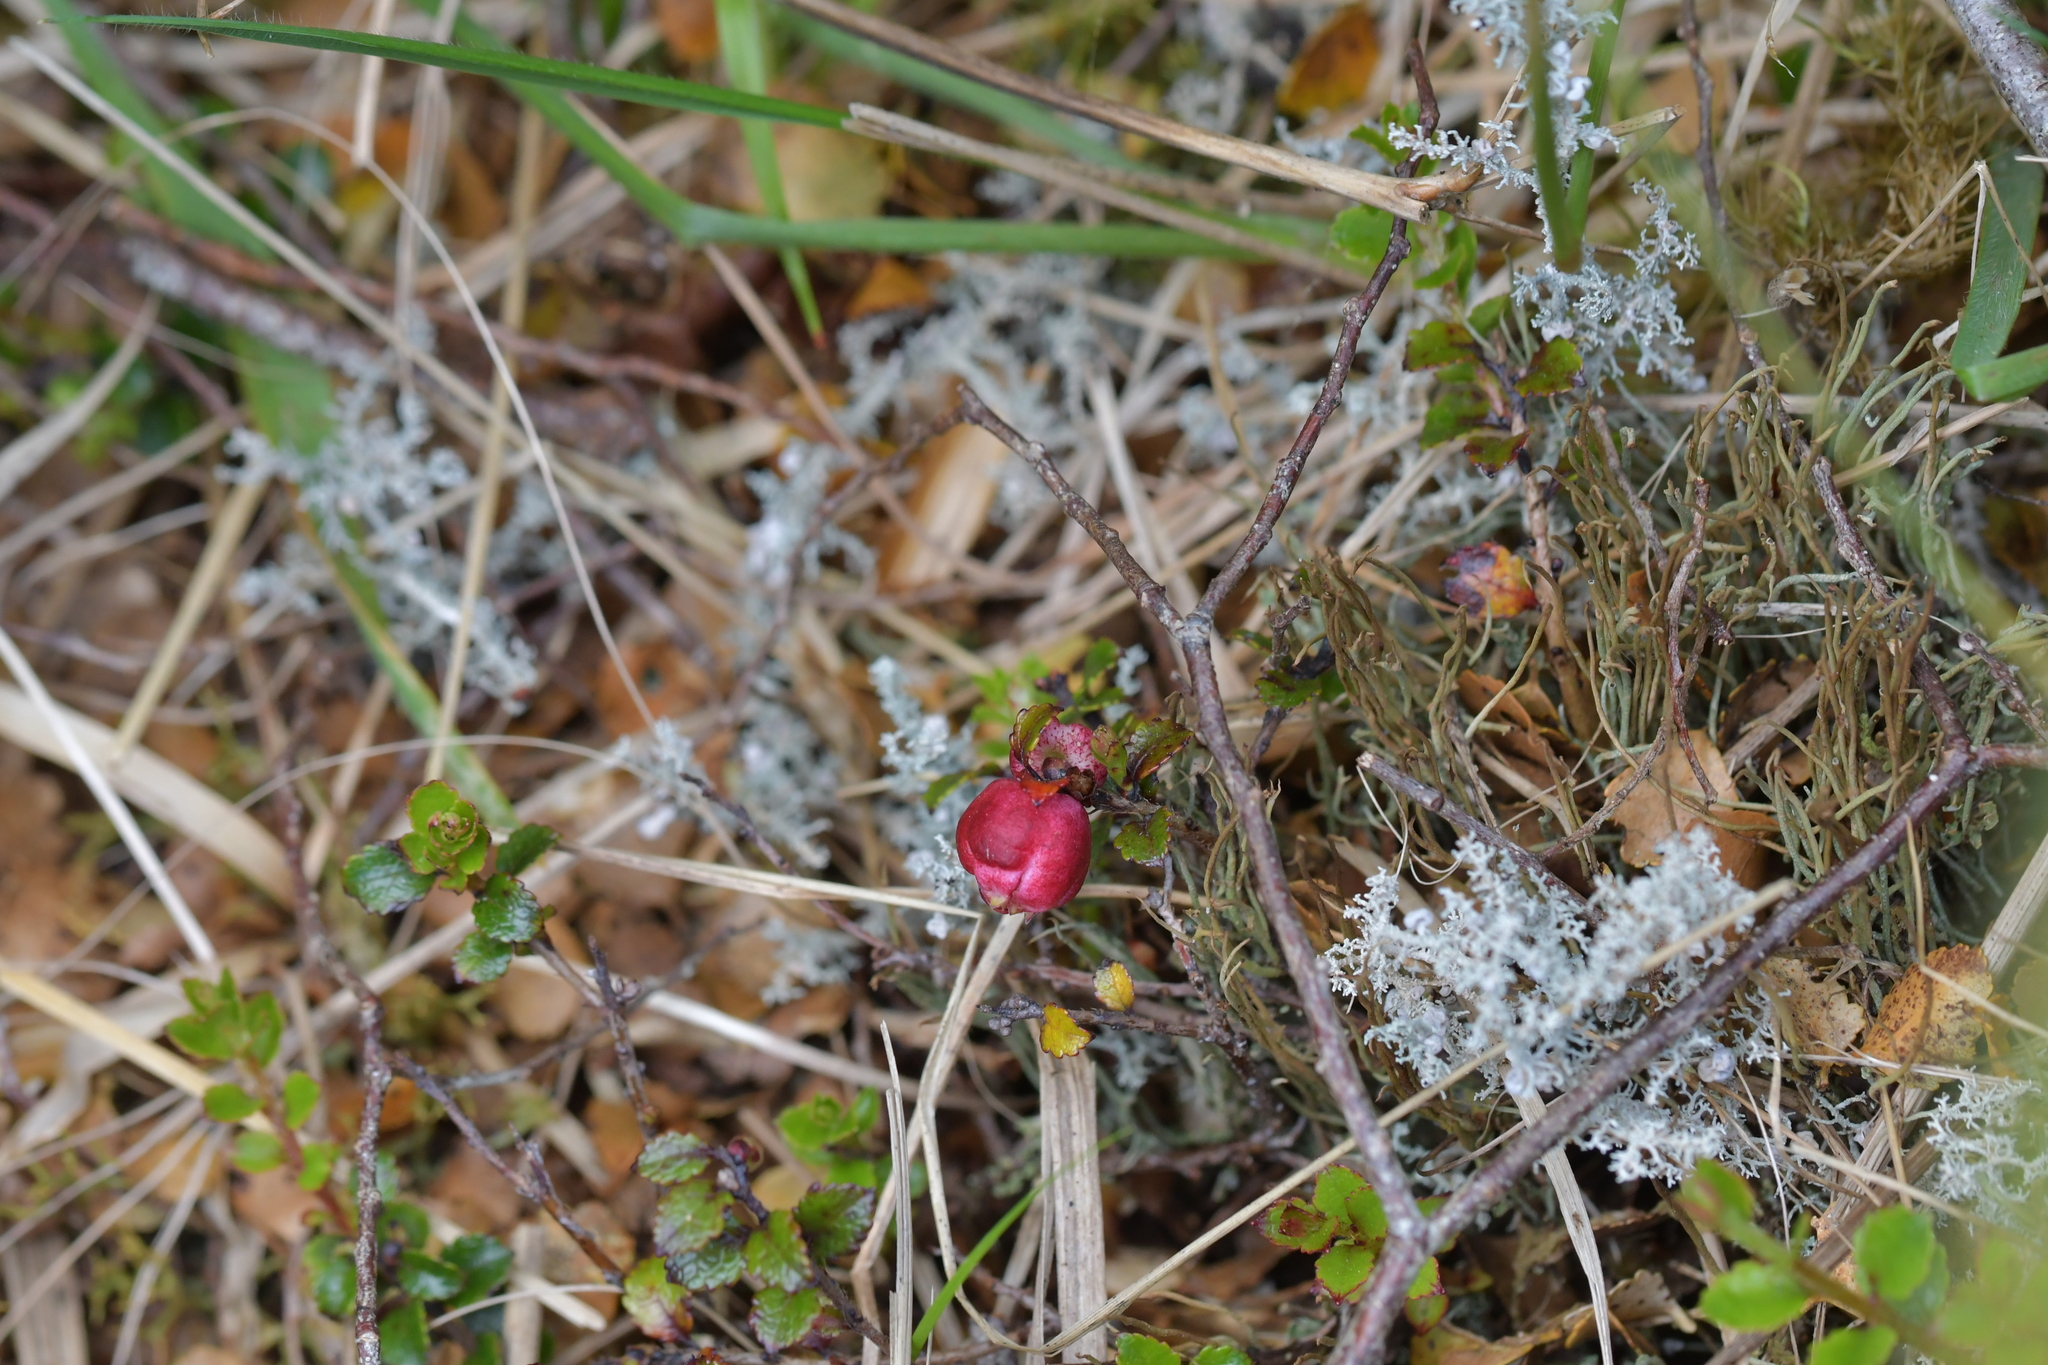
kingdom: Plantae
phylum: Tracheophyta
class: Magnoliopsida
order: Ericales
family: Ericaceae
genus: Gaultheria
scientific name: Gaultheria depressa
